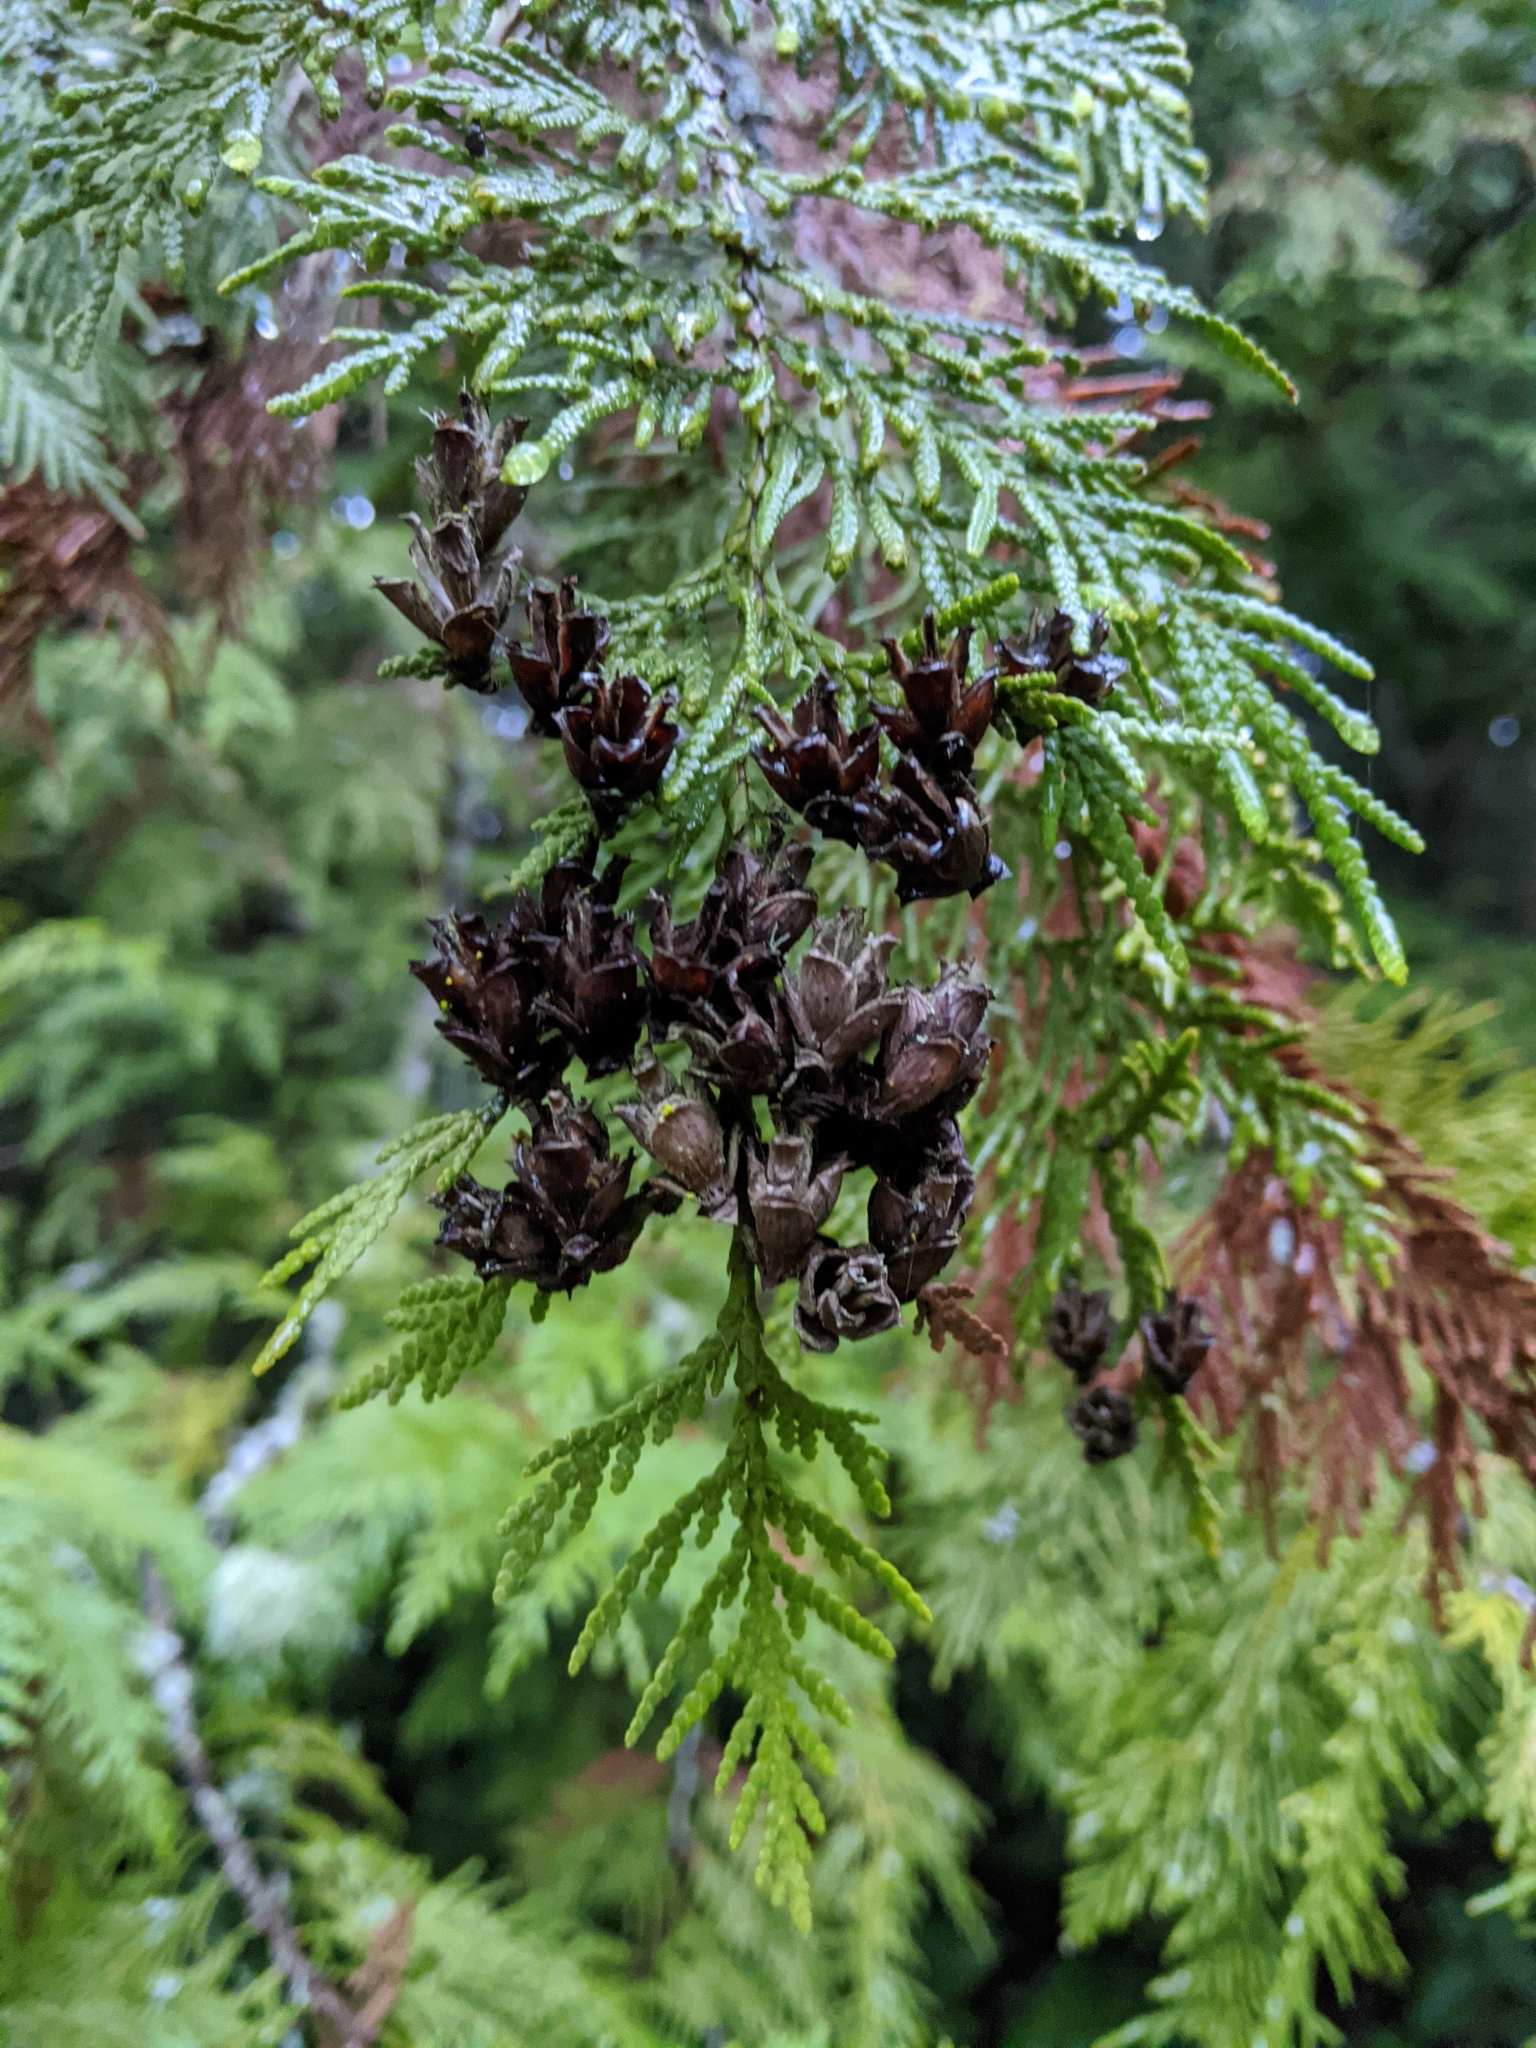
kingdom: Plantae
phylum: Tracheophyta
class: Pinopsida
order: Pinales
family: Cupressaceae
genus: Thuja
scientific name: Thuja plicata
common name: Western red-cedar
